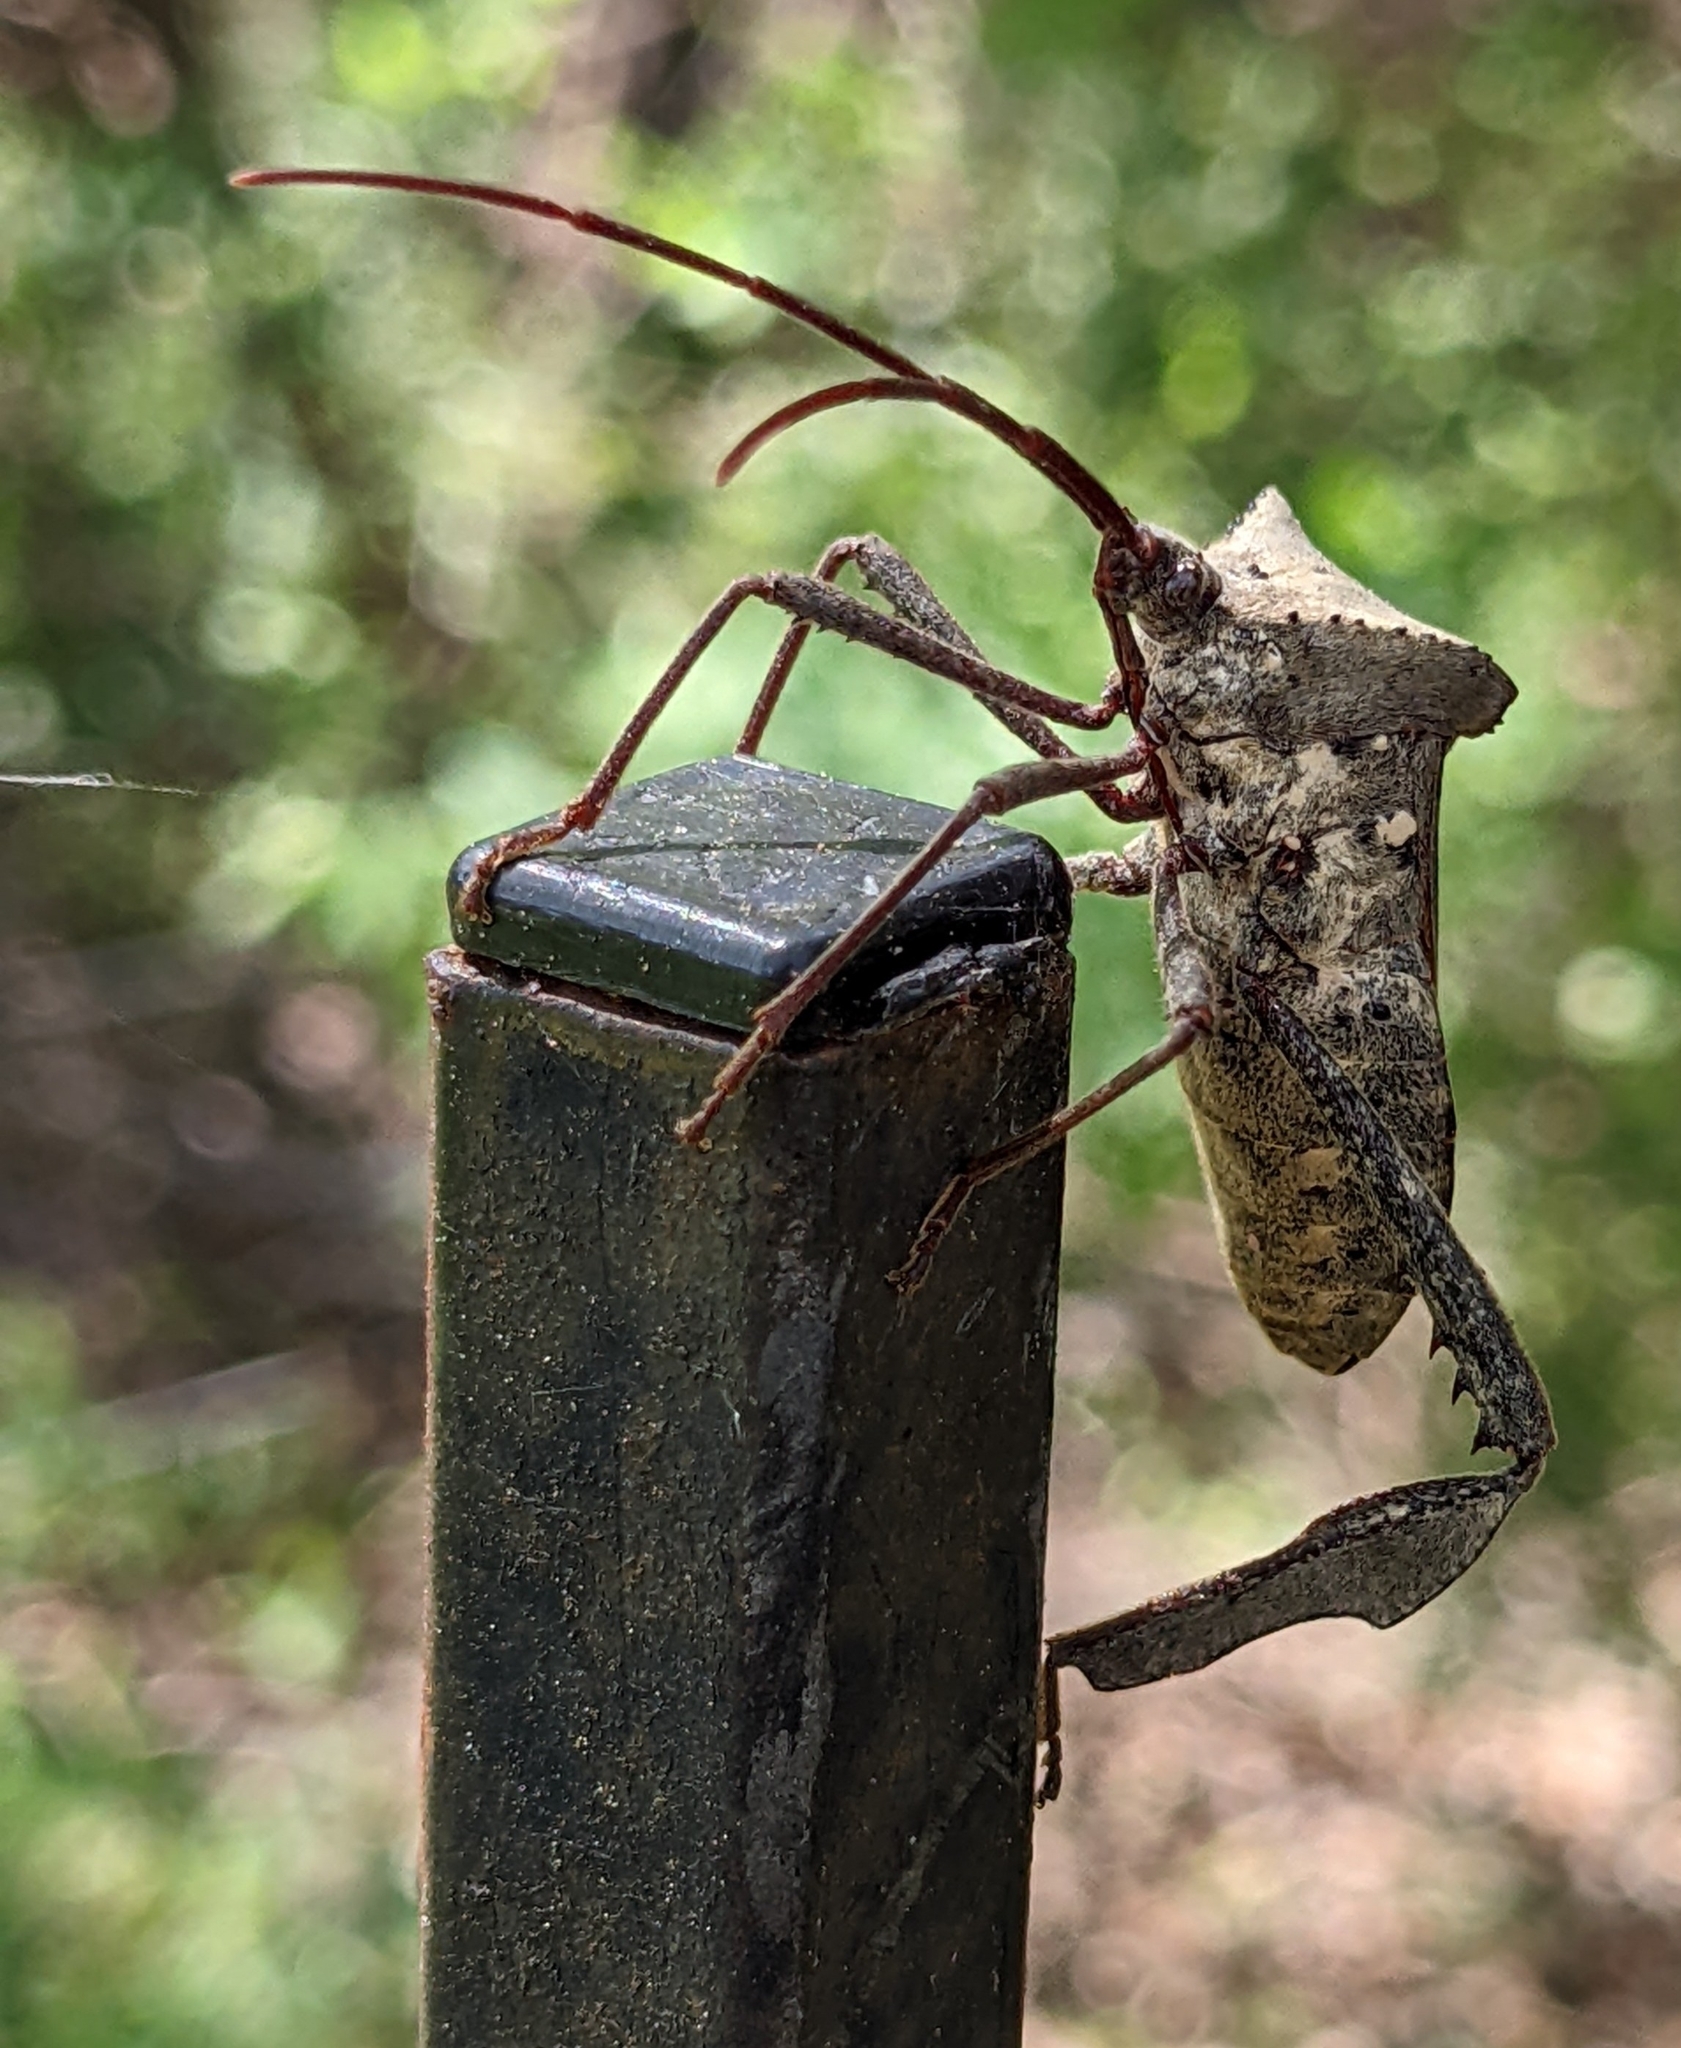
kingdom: Animalia
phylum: Arthropoda
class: Insecta
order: Hemiptera
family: Coreidae
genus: Acanthocephala
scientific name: Acanthocephala declivis
